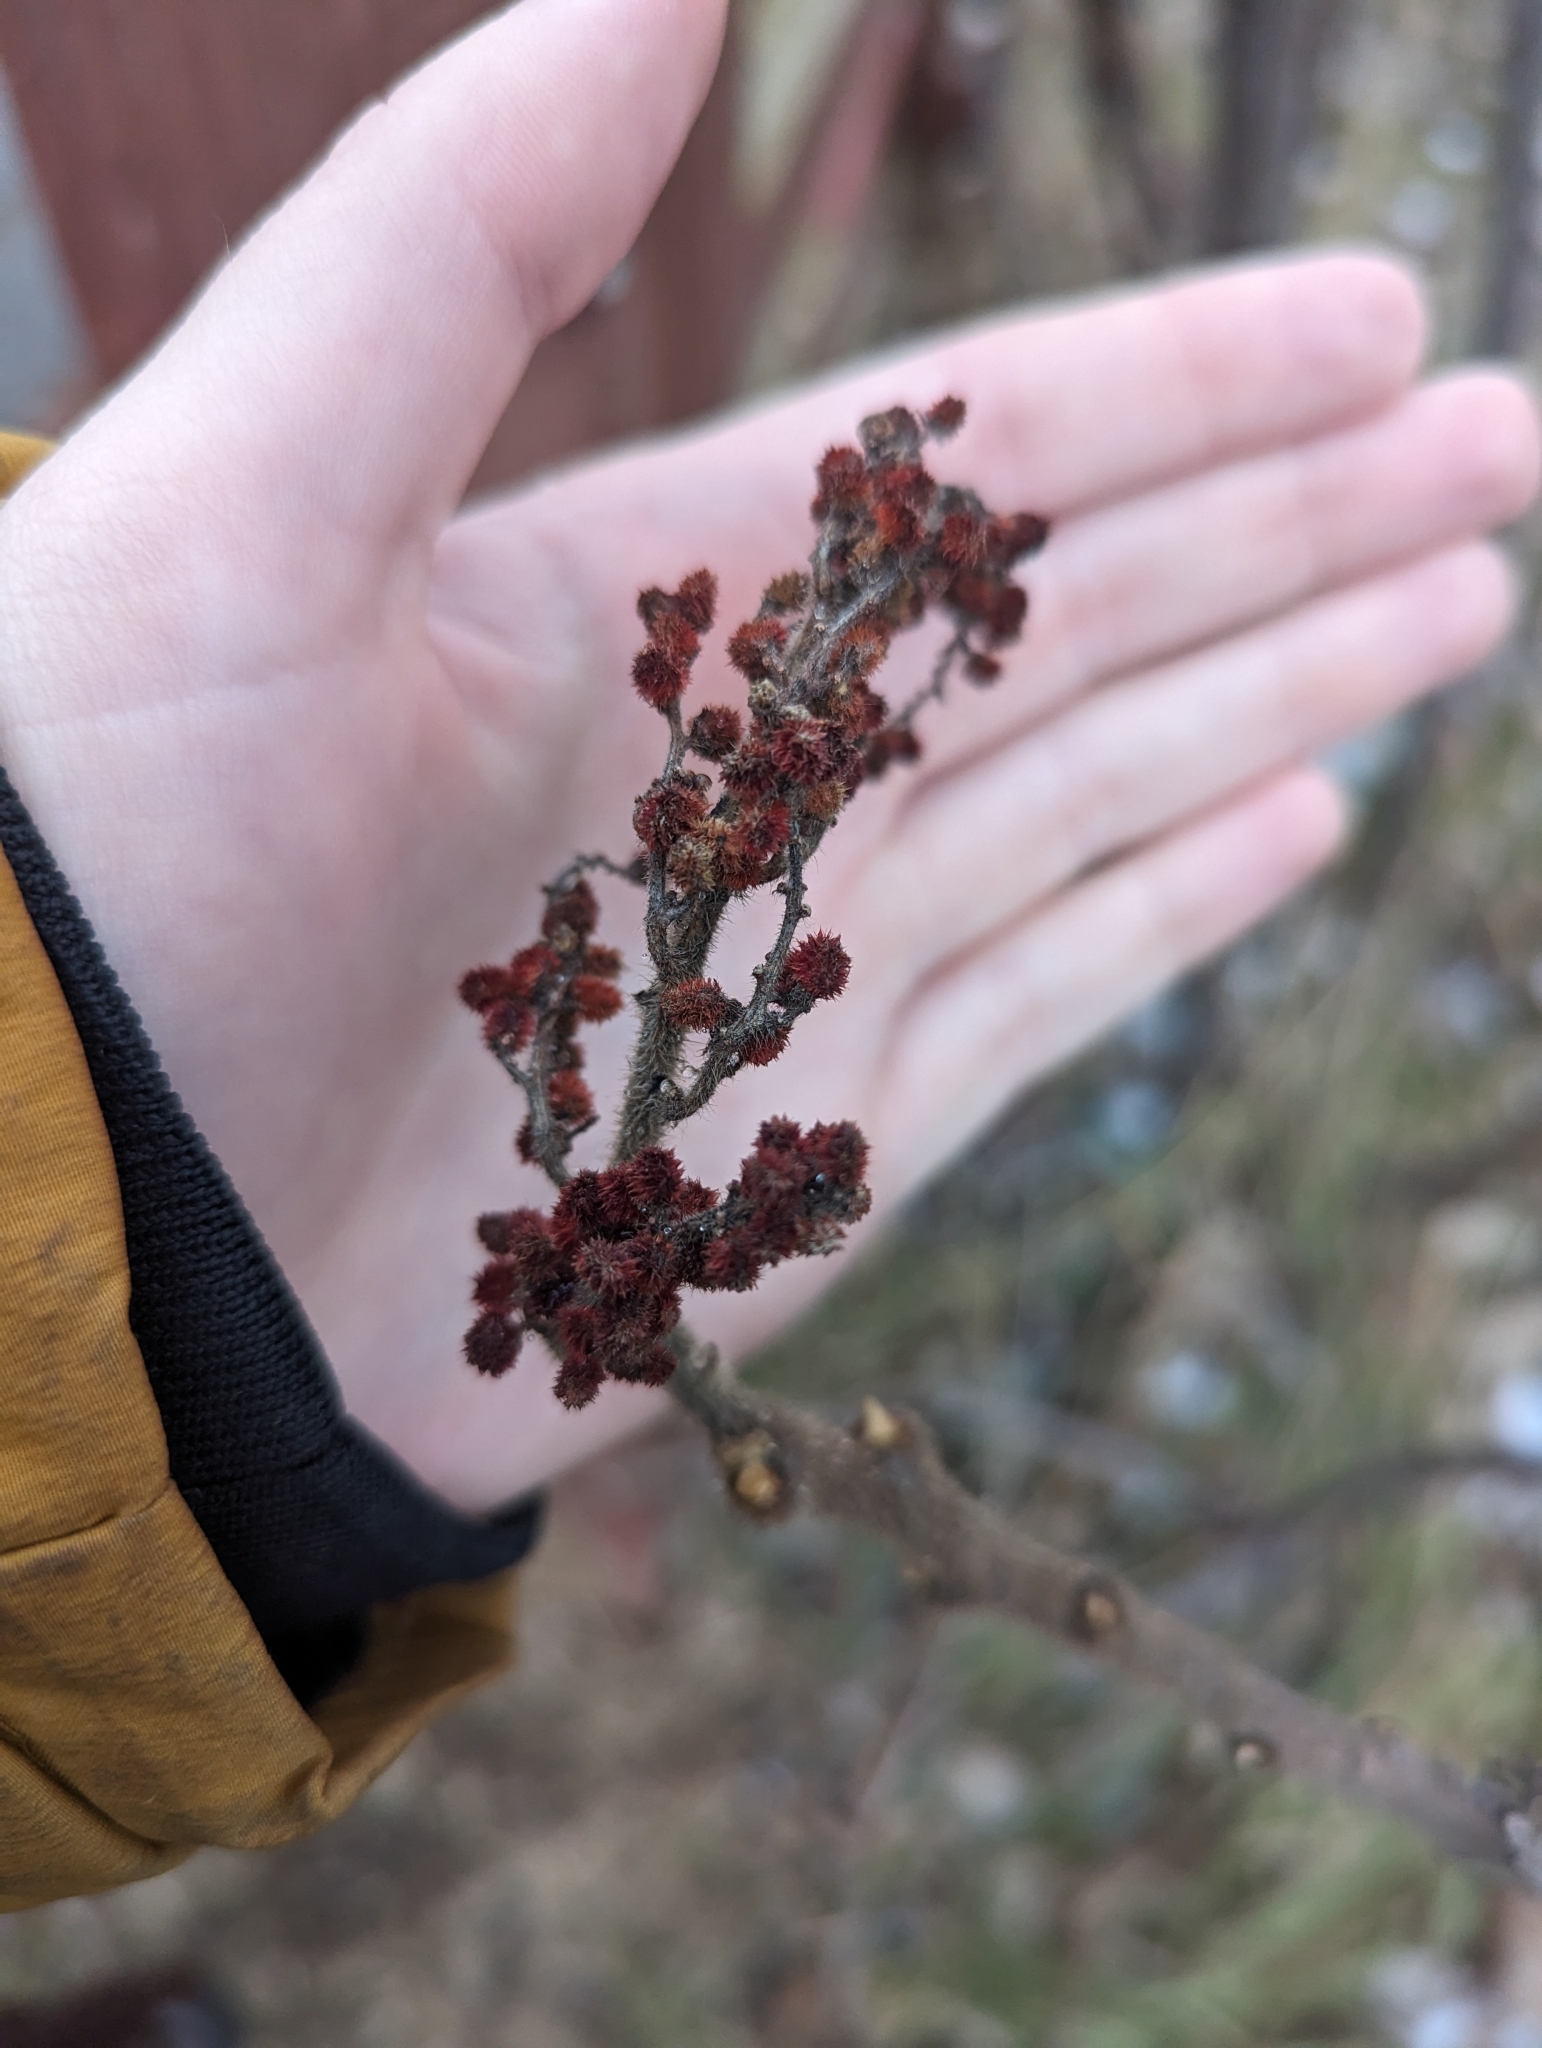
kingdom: Plantae
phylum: Tracheophyta
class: Magnoliopsida
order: Sapindales
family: Anacardiaceae
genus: Rhus
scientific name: Rhus typhina
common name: Staghorn sumac
